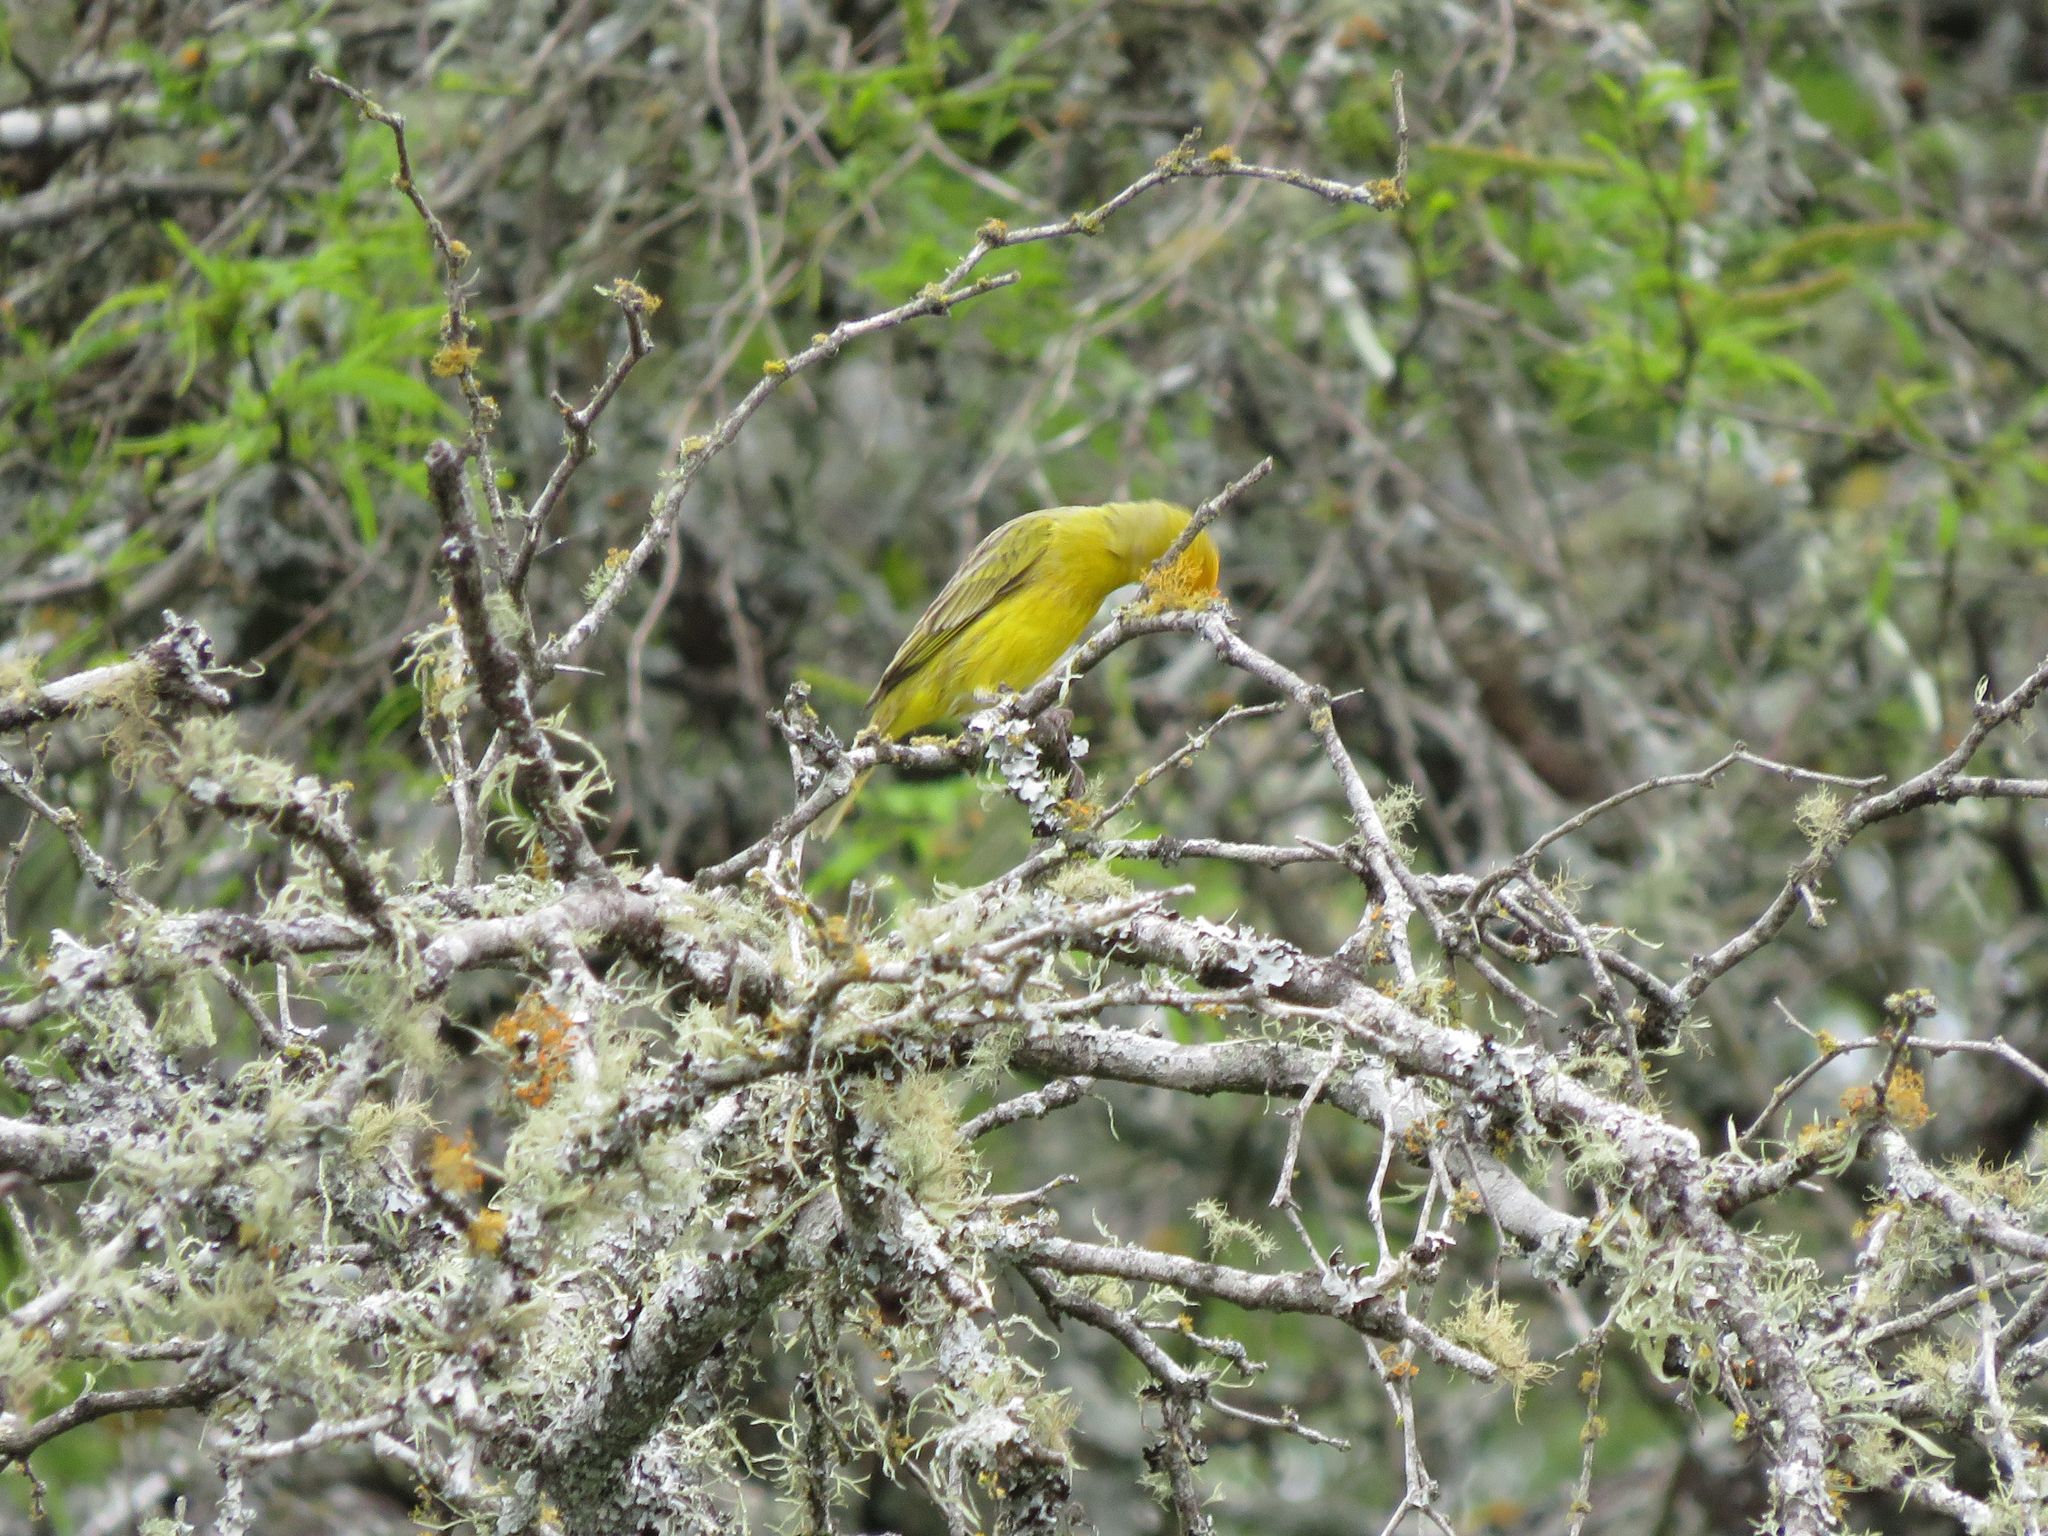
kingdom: Animalia
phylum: Chordata
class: Aves
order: Passeriformes
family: Thraupidae
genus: Sicalis
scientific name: Sicalis flaveola
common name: Saffron finch
